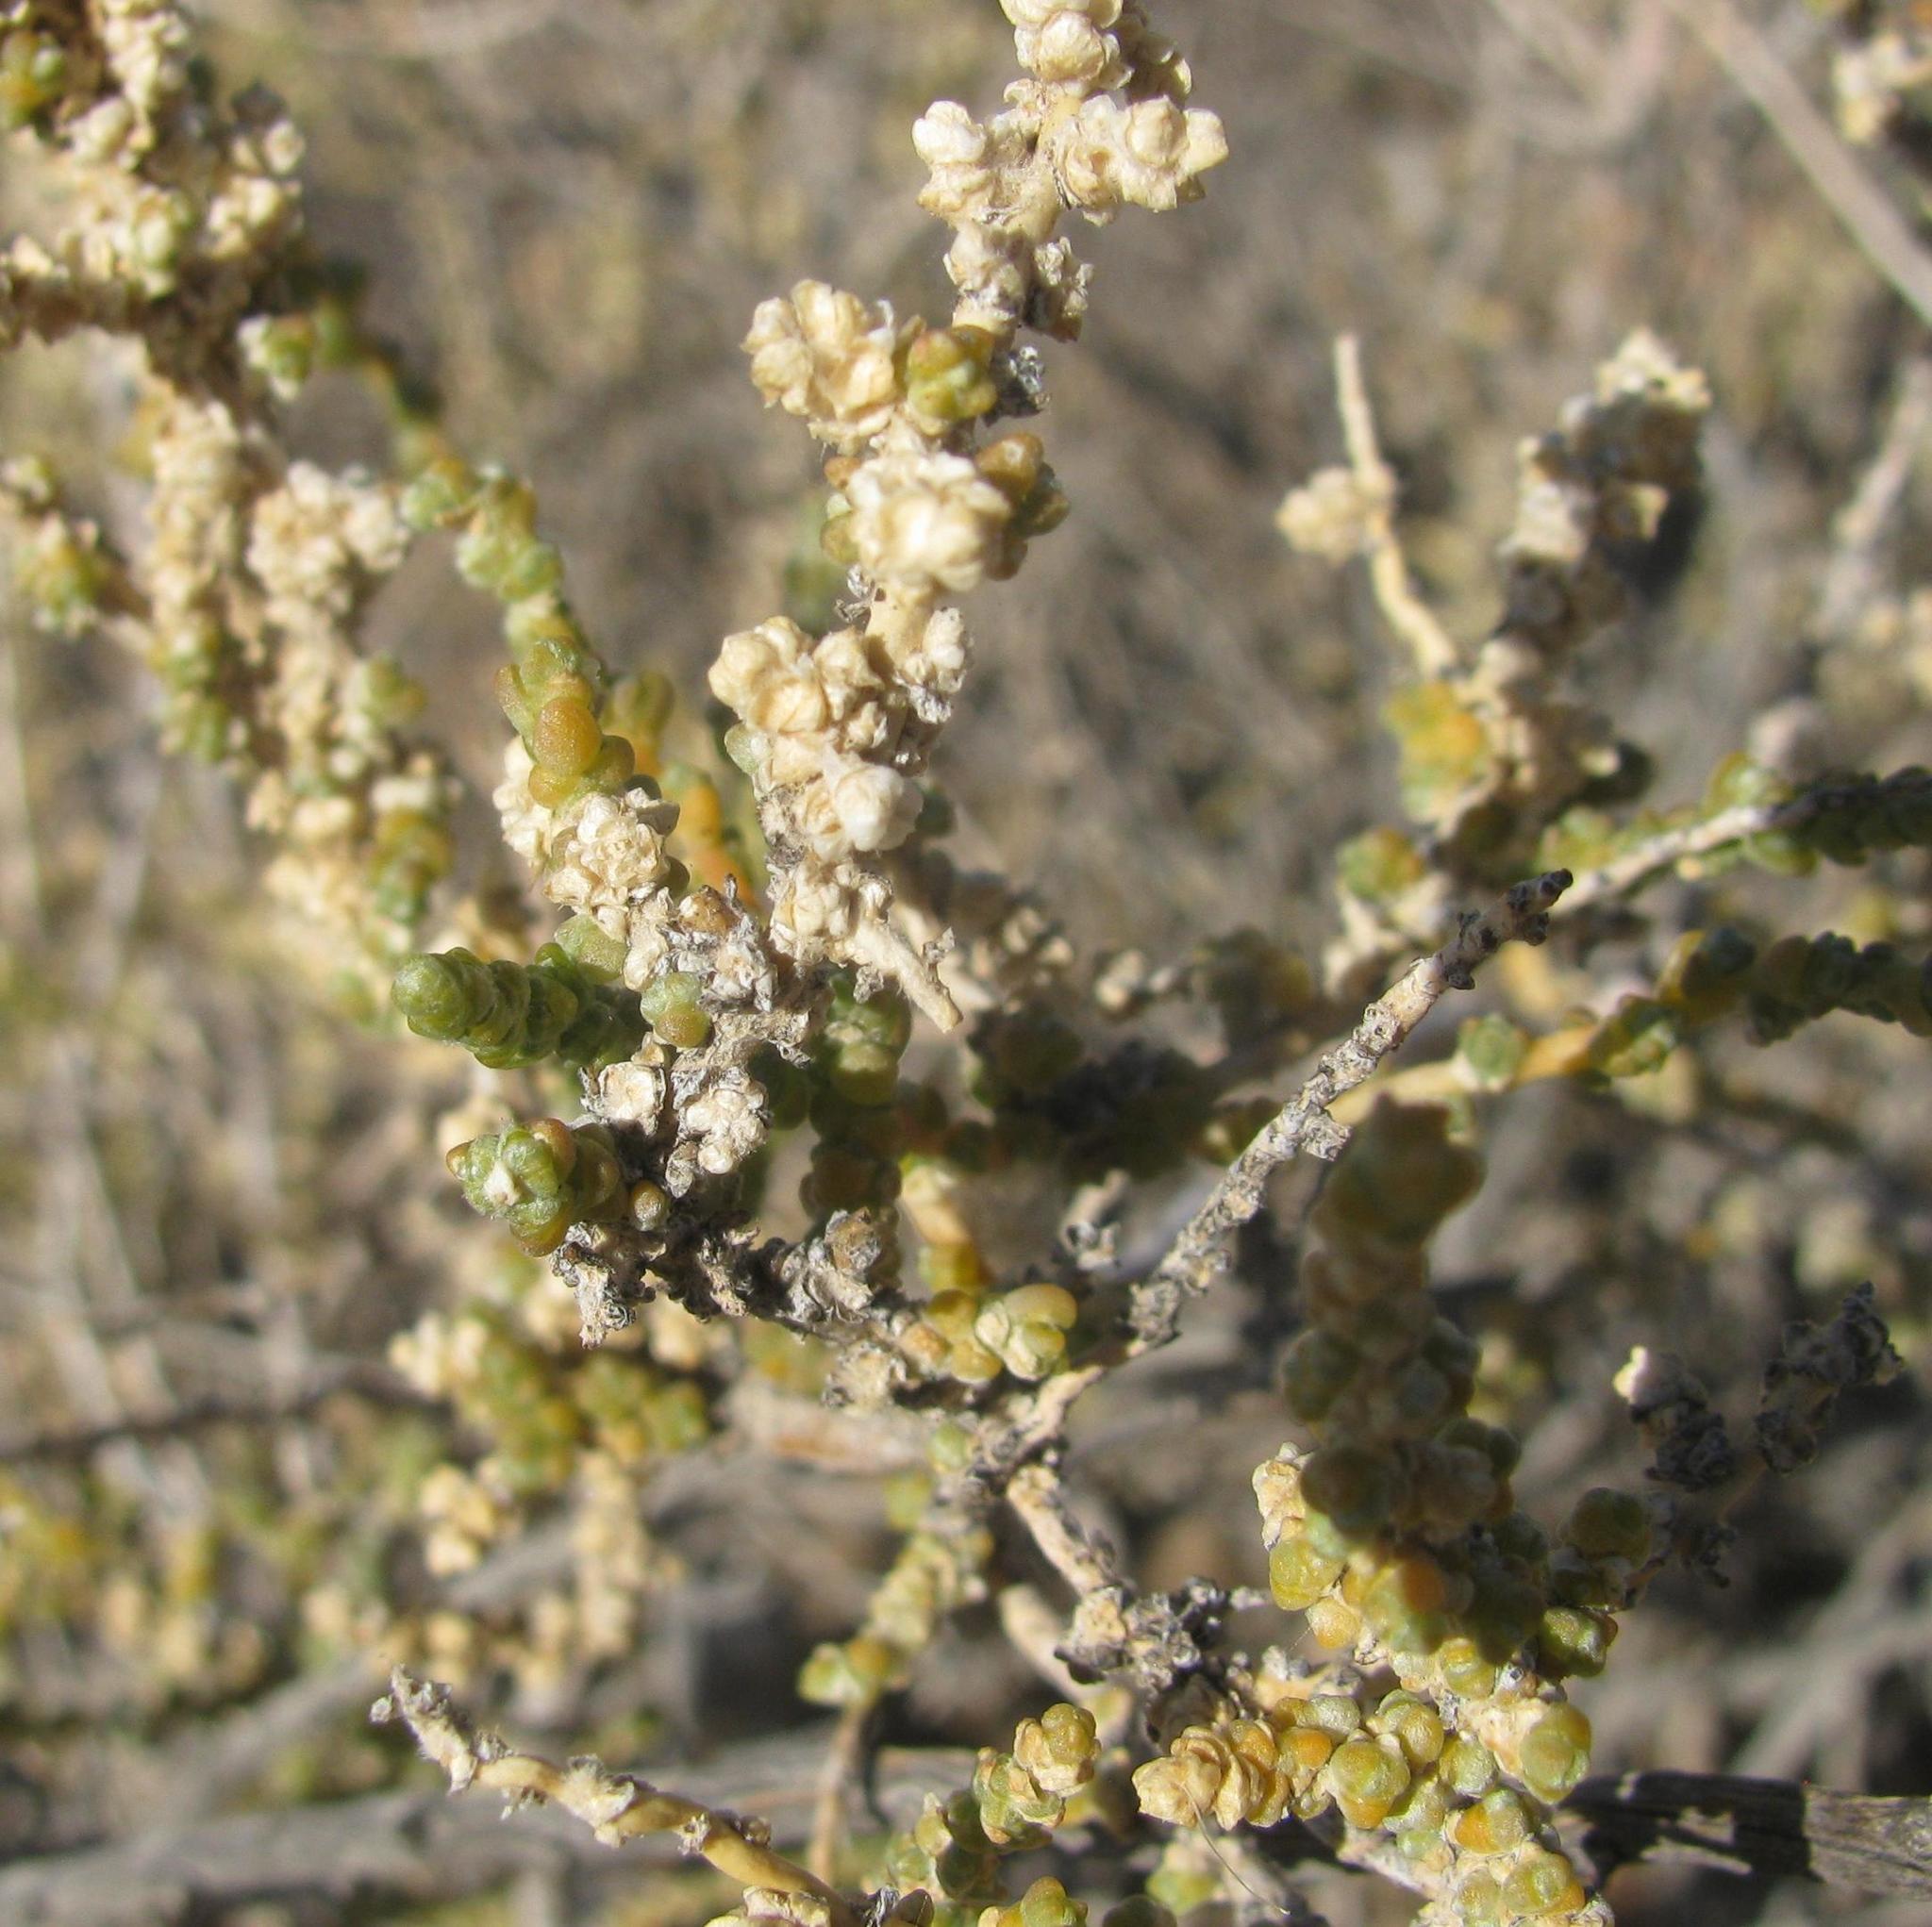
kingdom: Plantae
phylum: Tracheophyta
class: Magnoliopsida
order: Caryophyllales
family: Amaranthaceae
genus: Caroxylon
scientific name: Caroxylon aphyllum
